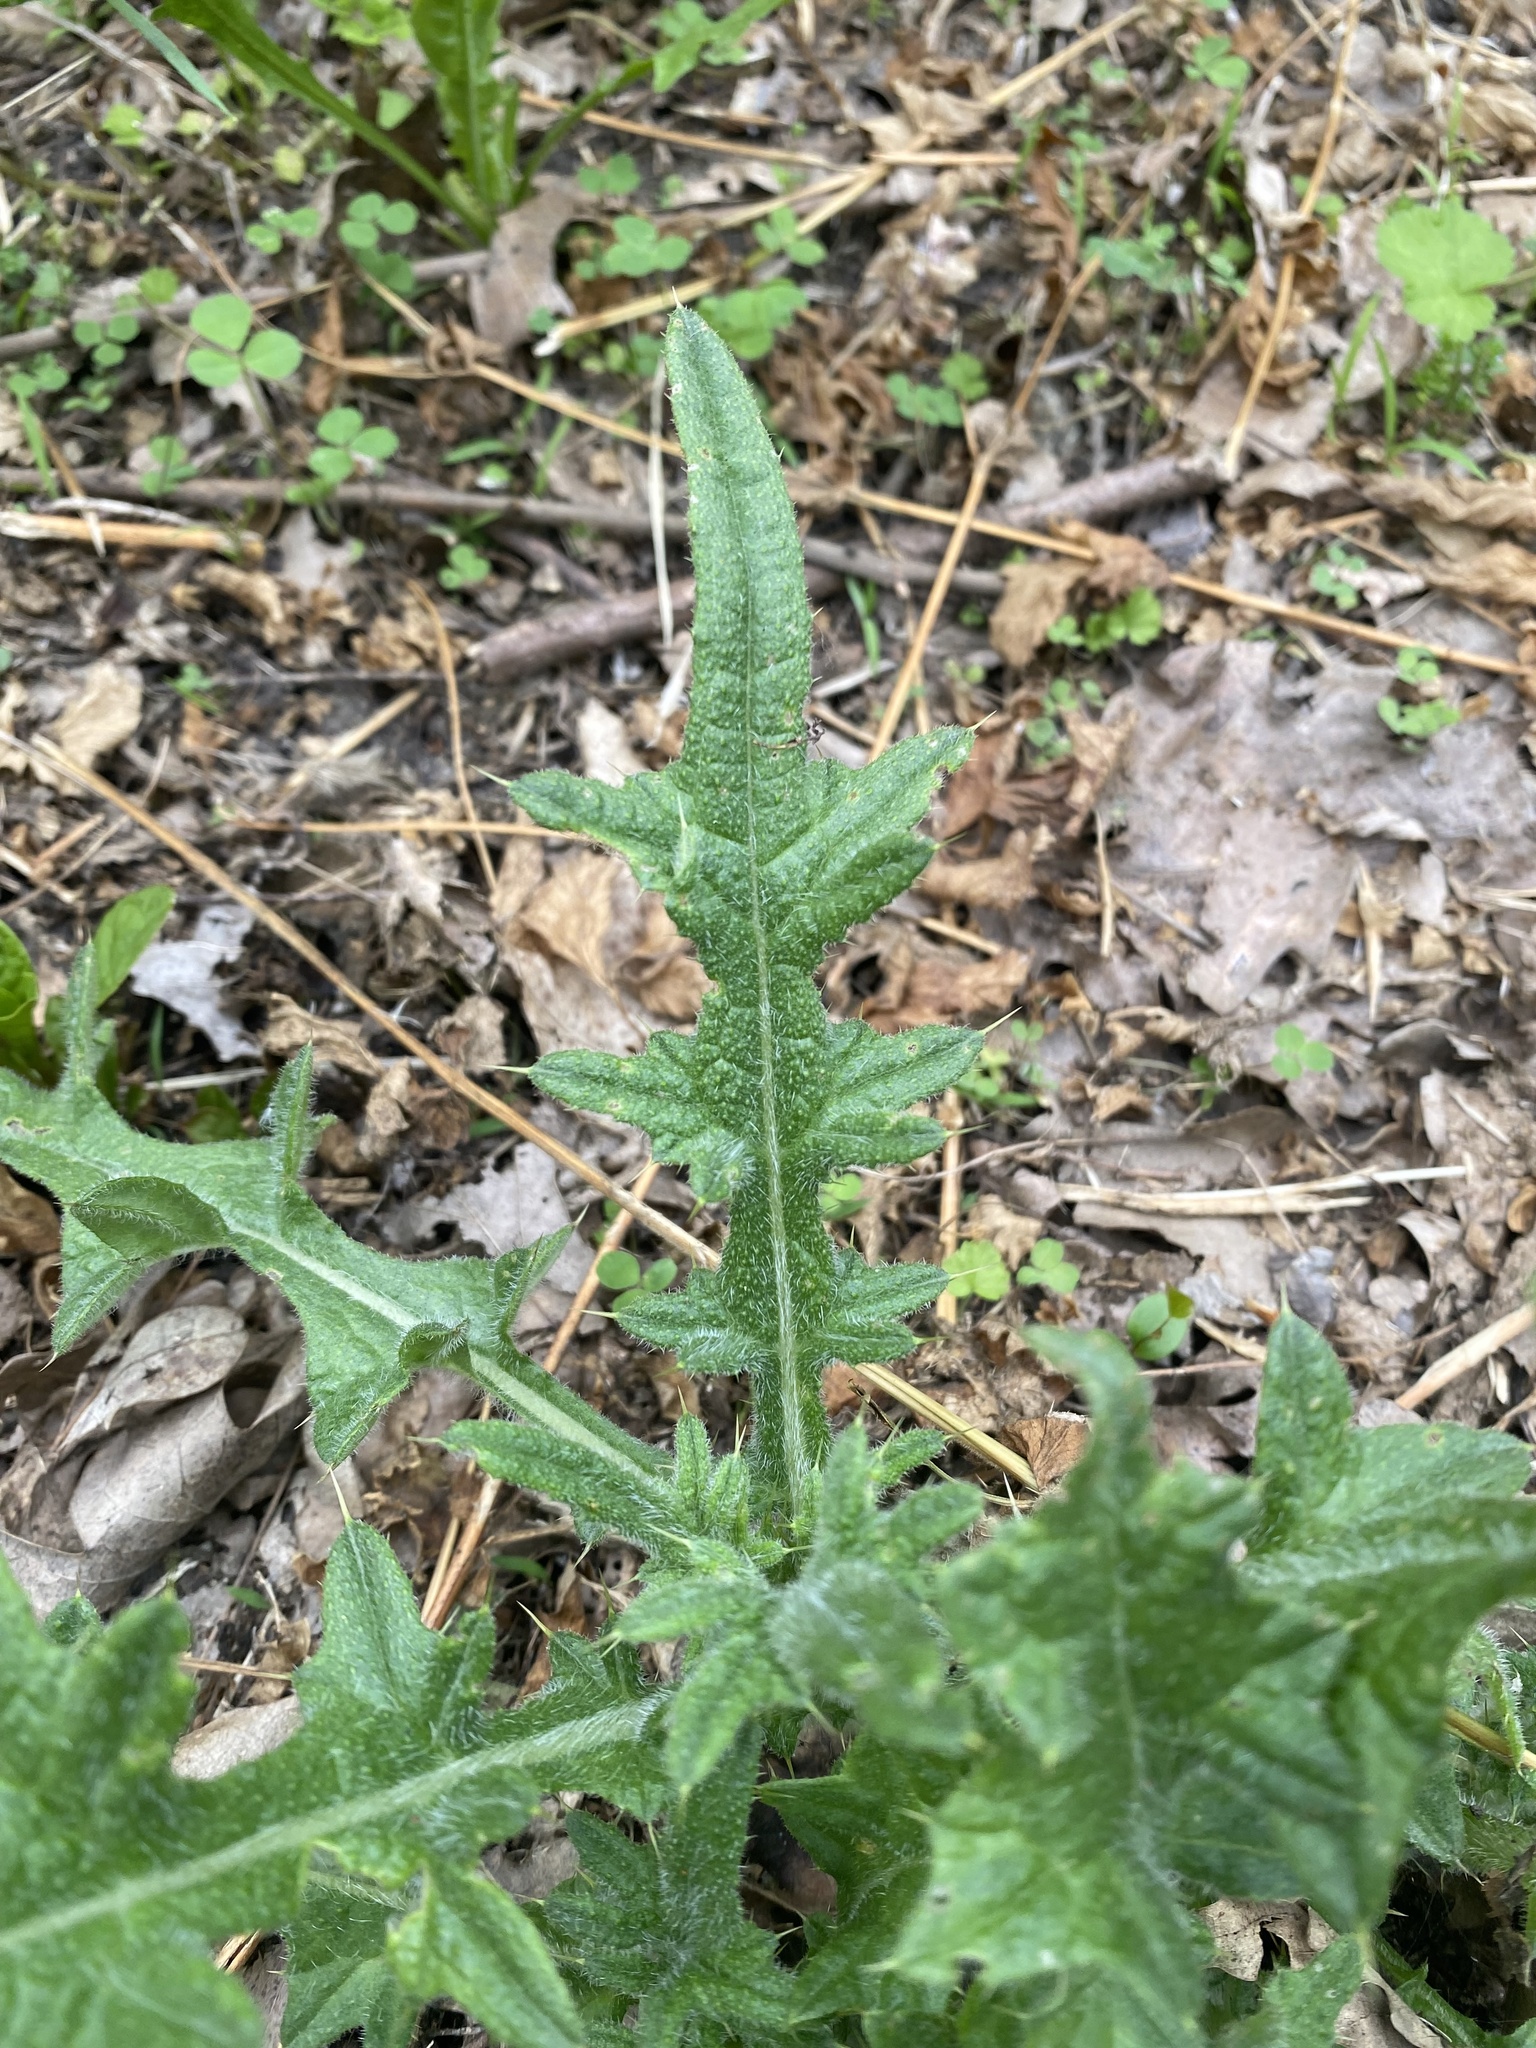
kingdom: Plantae
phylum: Tracheophyta
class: Magnoliopsida
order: Asterales
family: Asteraceae
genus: Cirsium
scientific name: Cirsium vulgare
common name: Bull thistle
